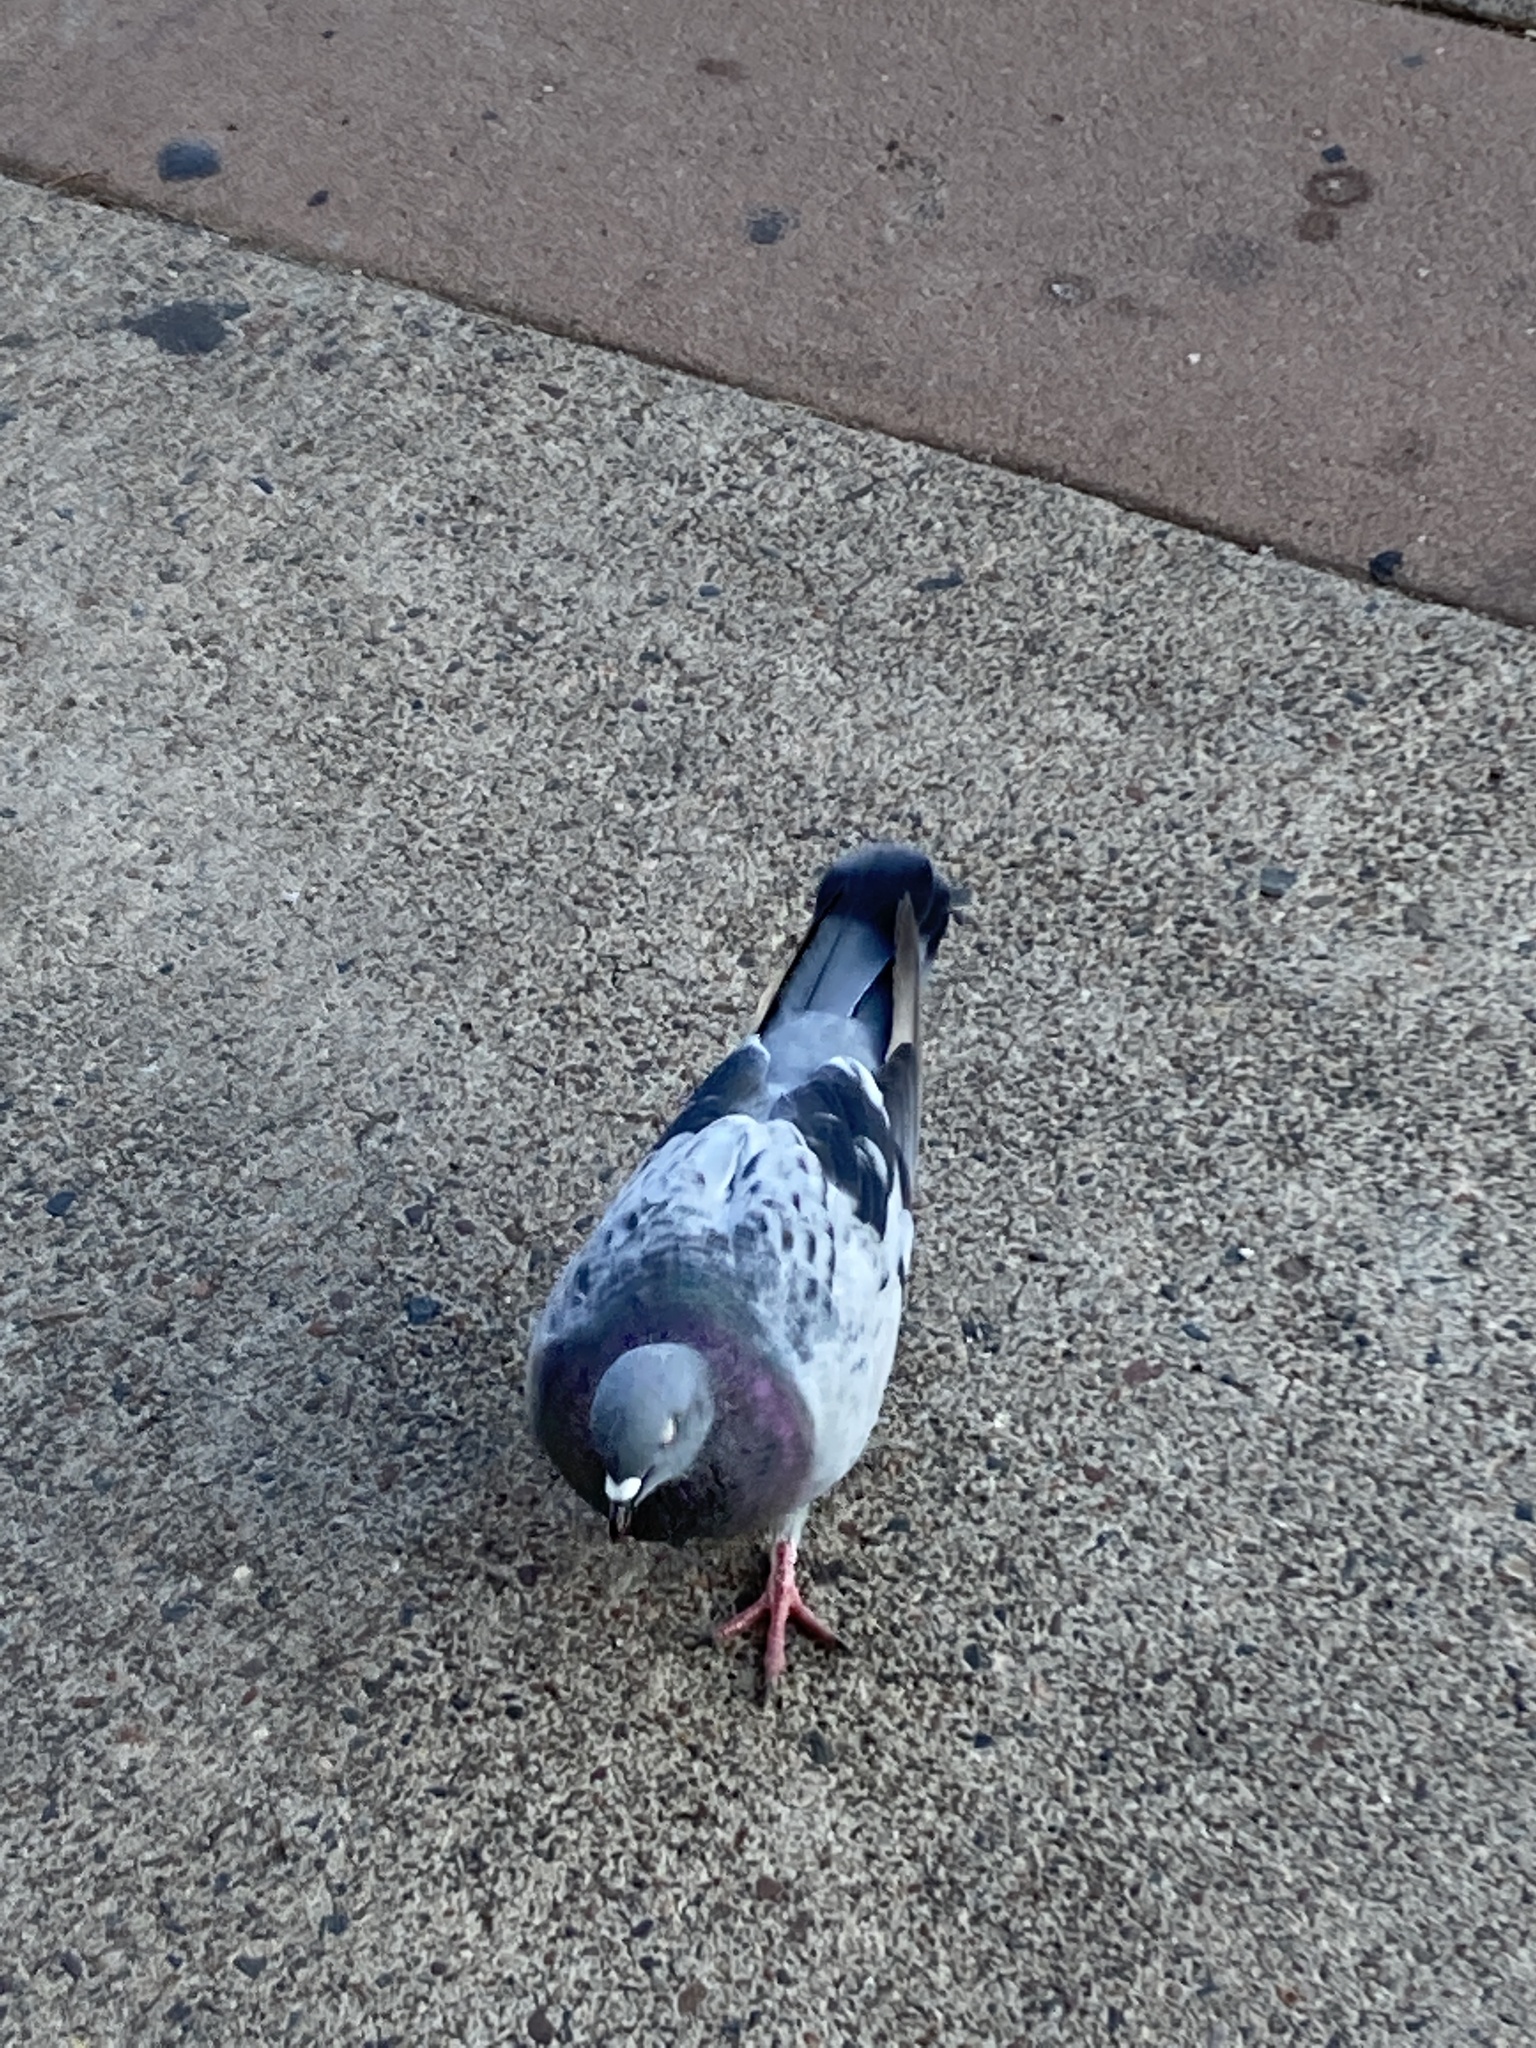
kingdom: Animalia
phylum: Chordata
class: Aves
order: Columbiformes
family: Columbidae
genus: Columba
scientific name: Columba livia
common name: Rock pigeon
